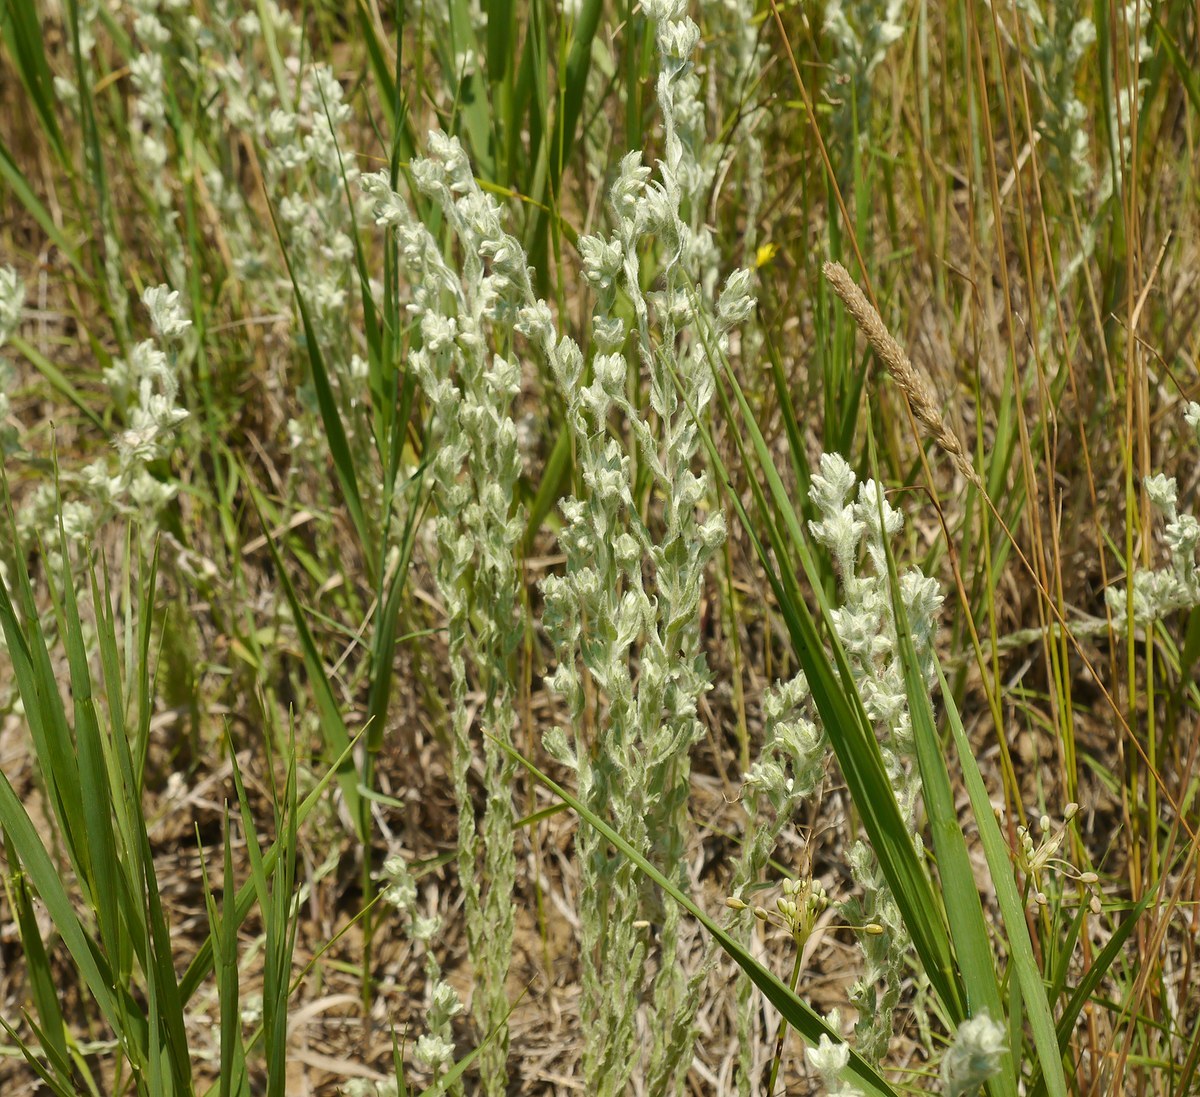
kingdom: Plantae
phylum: Tracheophyta
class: Magnoliopsida
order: Asterales
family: Asteraceae
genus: Filago
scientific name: Filago arvensis
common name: Field cudweed
